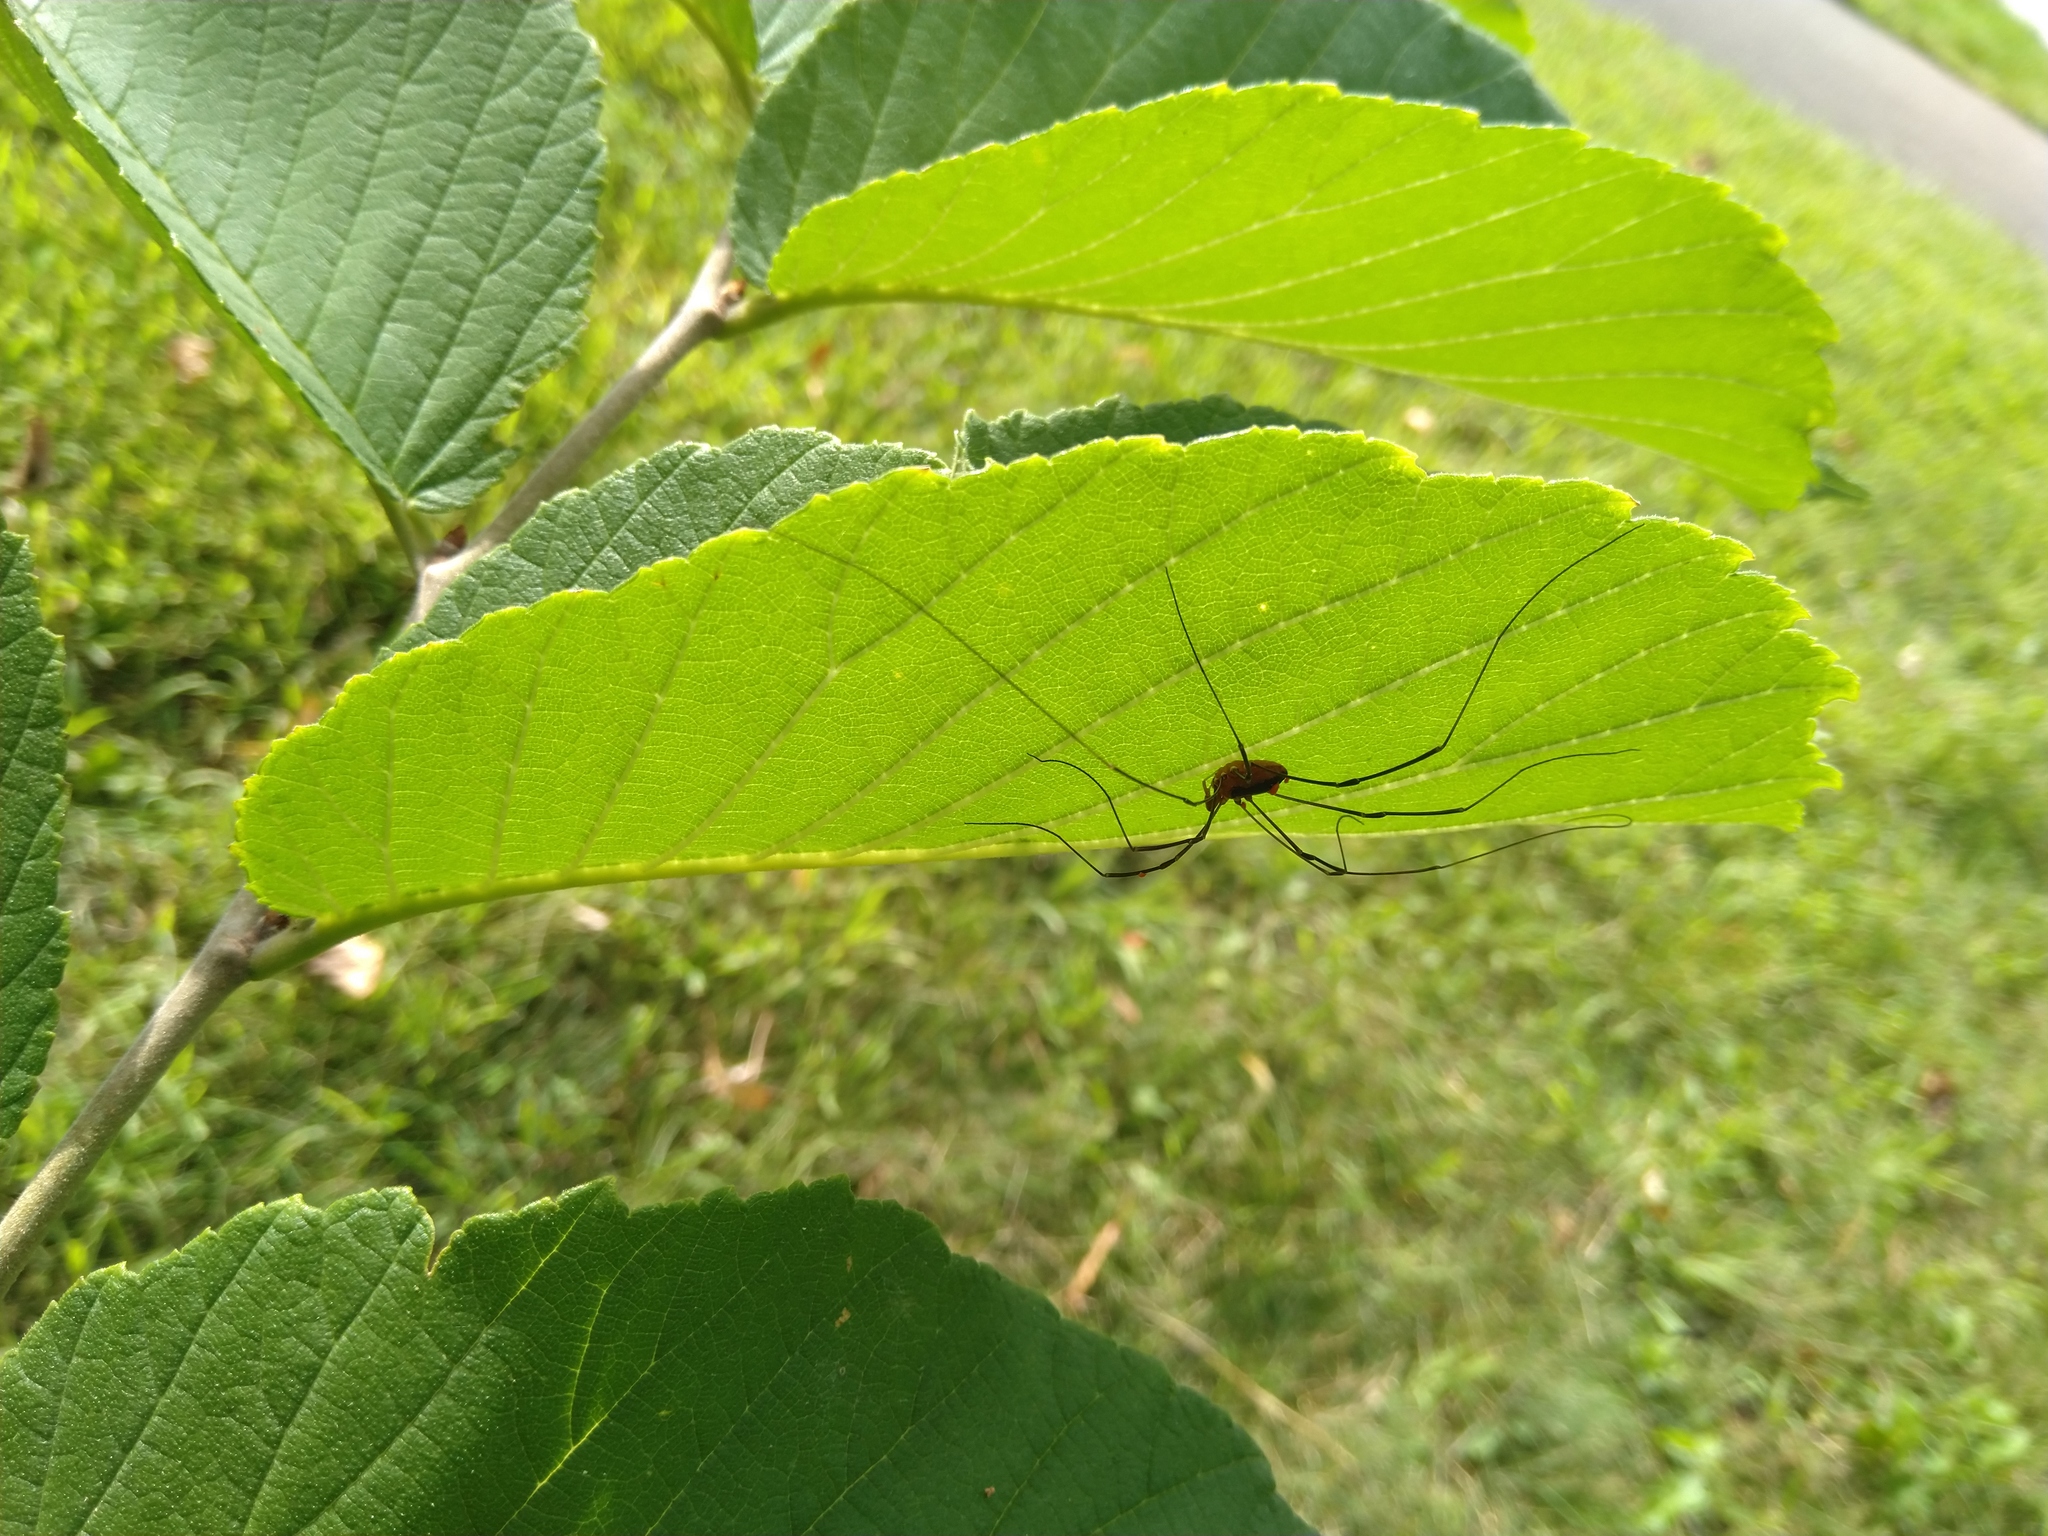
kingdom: Animalia
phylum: Arthropoda
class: Arachnida
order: Opiliones
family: Sclerosomatidae
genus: Leiobunum
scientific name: Leiobunum vittatum
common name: Eastern harvestman
